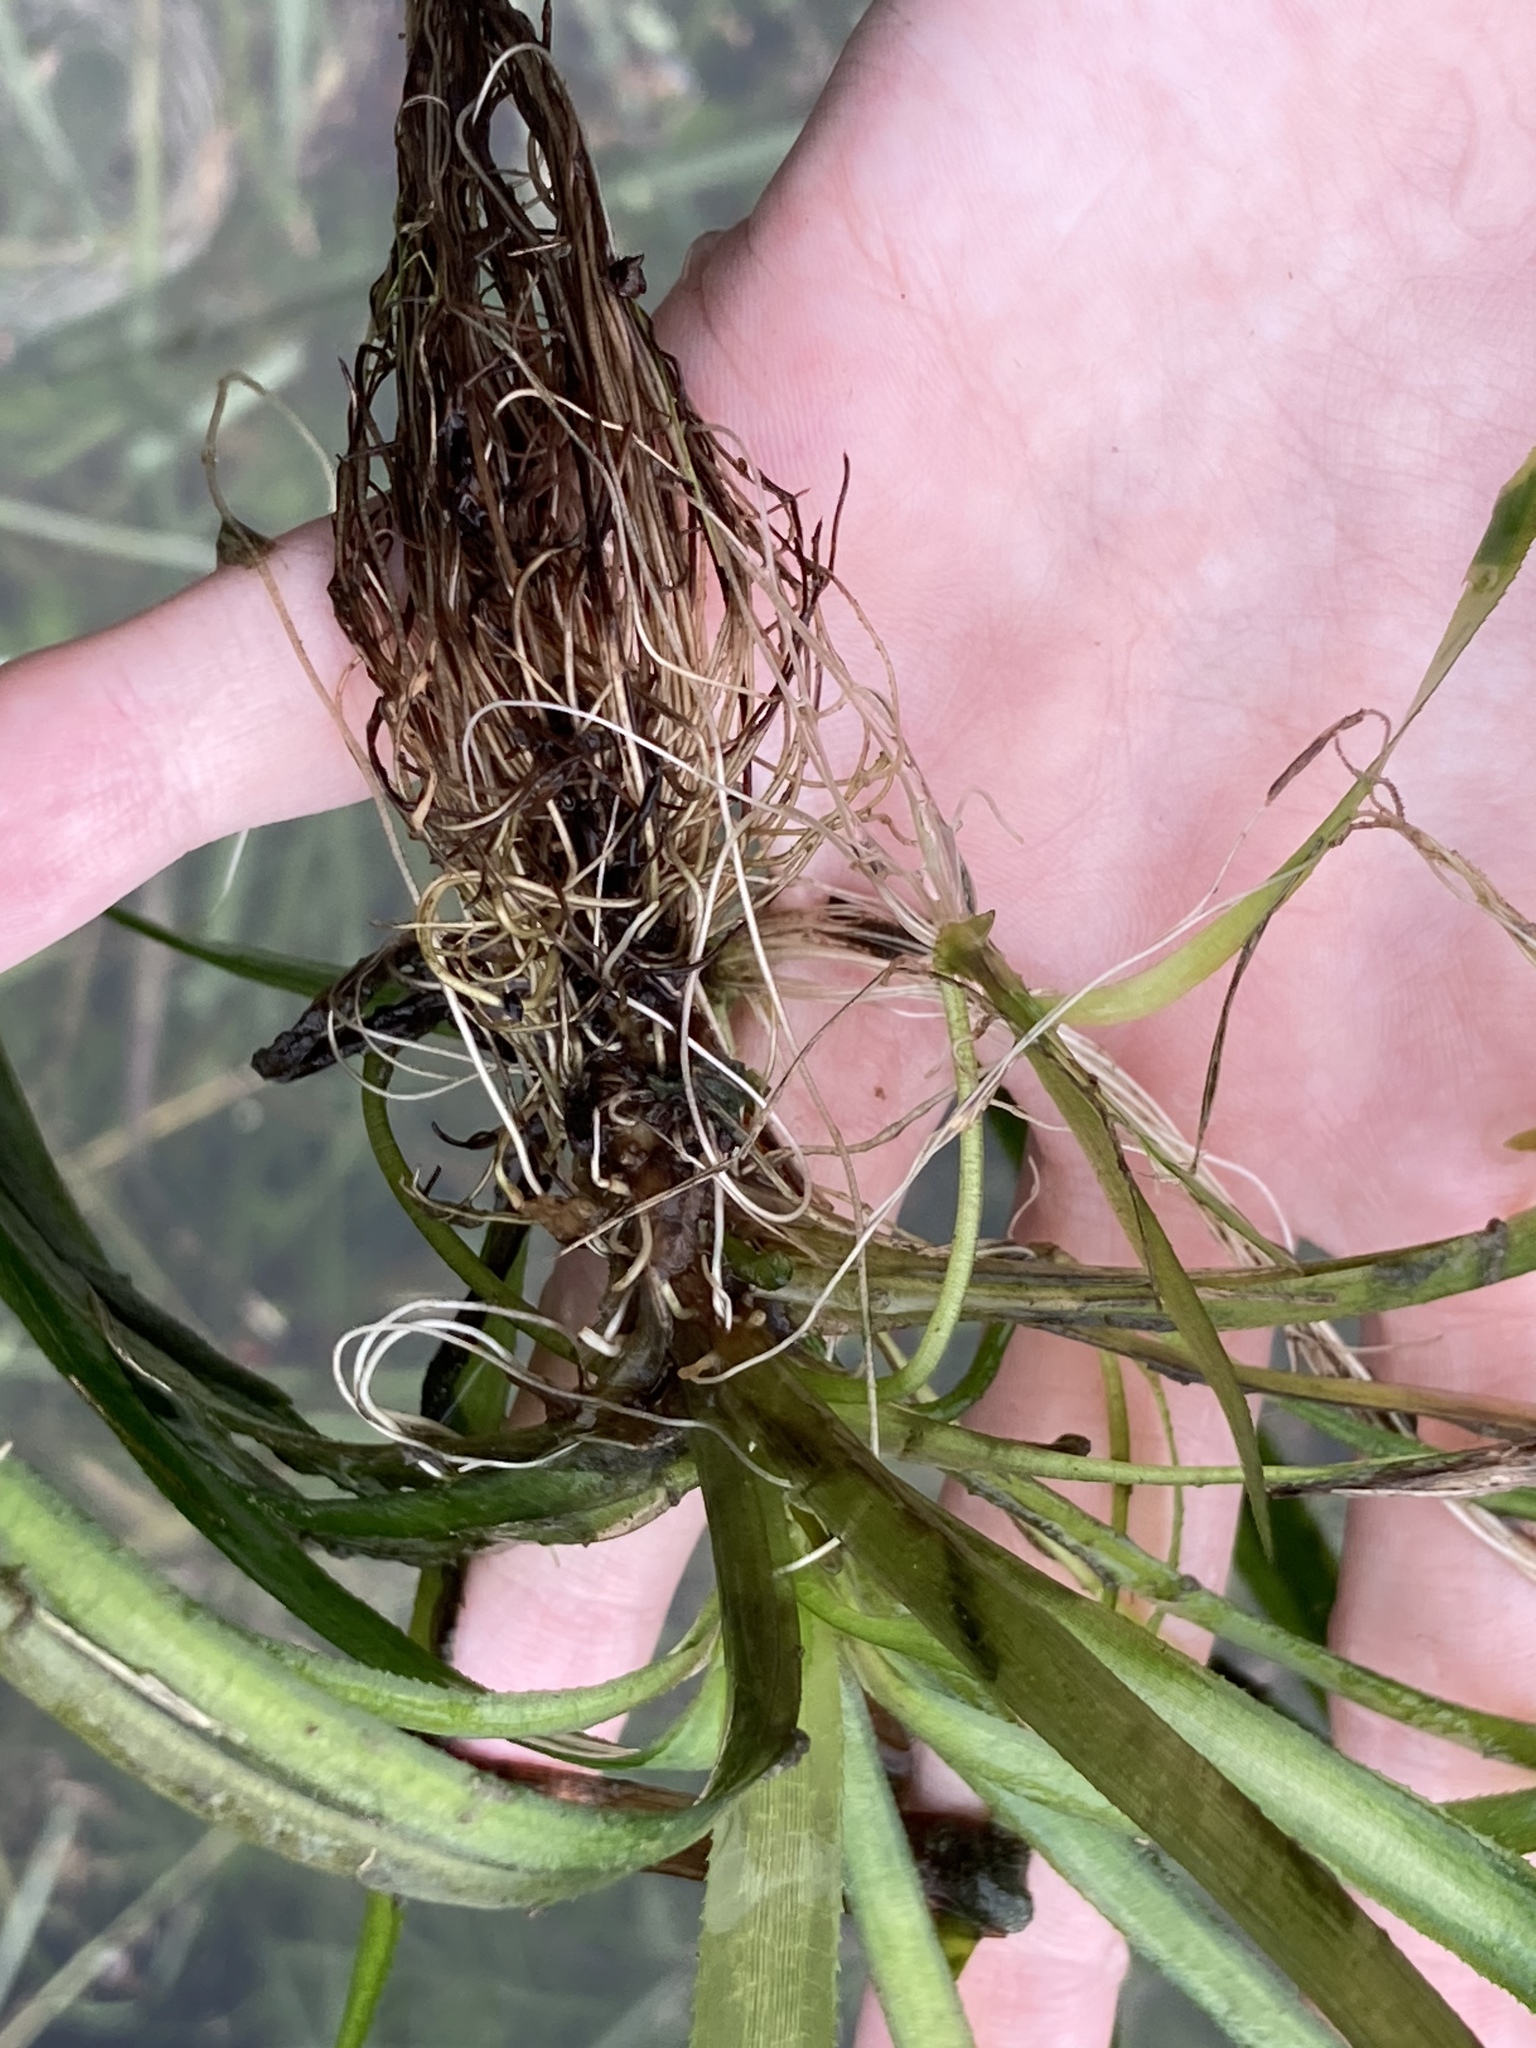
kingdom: Plantae
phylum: Tracheophyta
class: Liliopsida
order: Alismatales
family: Hydrocharitaceae
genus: Vallisneria
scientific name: Vallisneria americana
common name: American eelgrass
